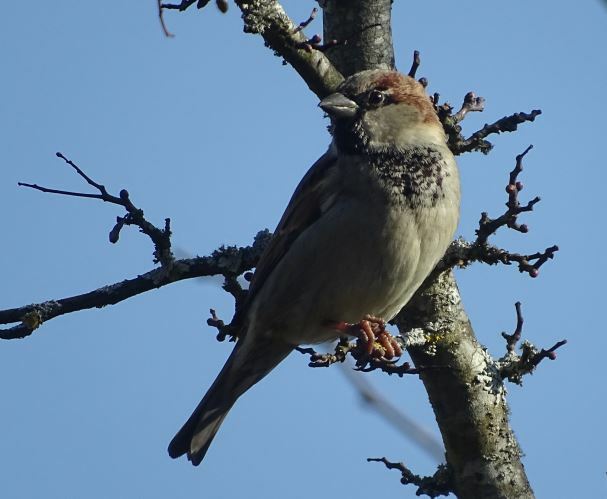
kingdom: Animalia
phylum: Chordata
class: Aves
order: Passeriformes
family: Passeridae
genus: Passer
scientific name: Passer domesticus
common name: House sparrow
